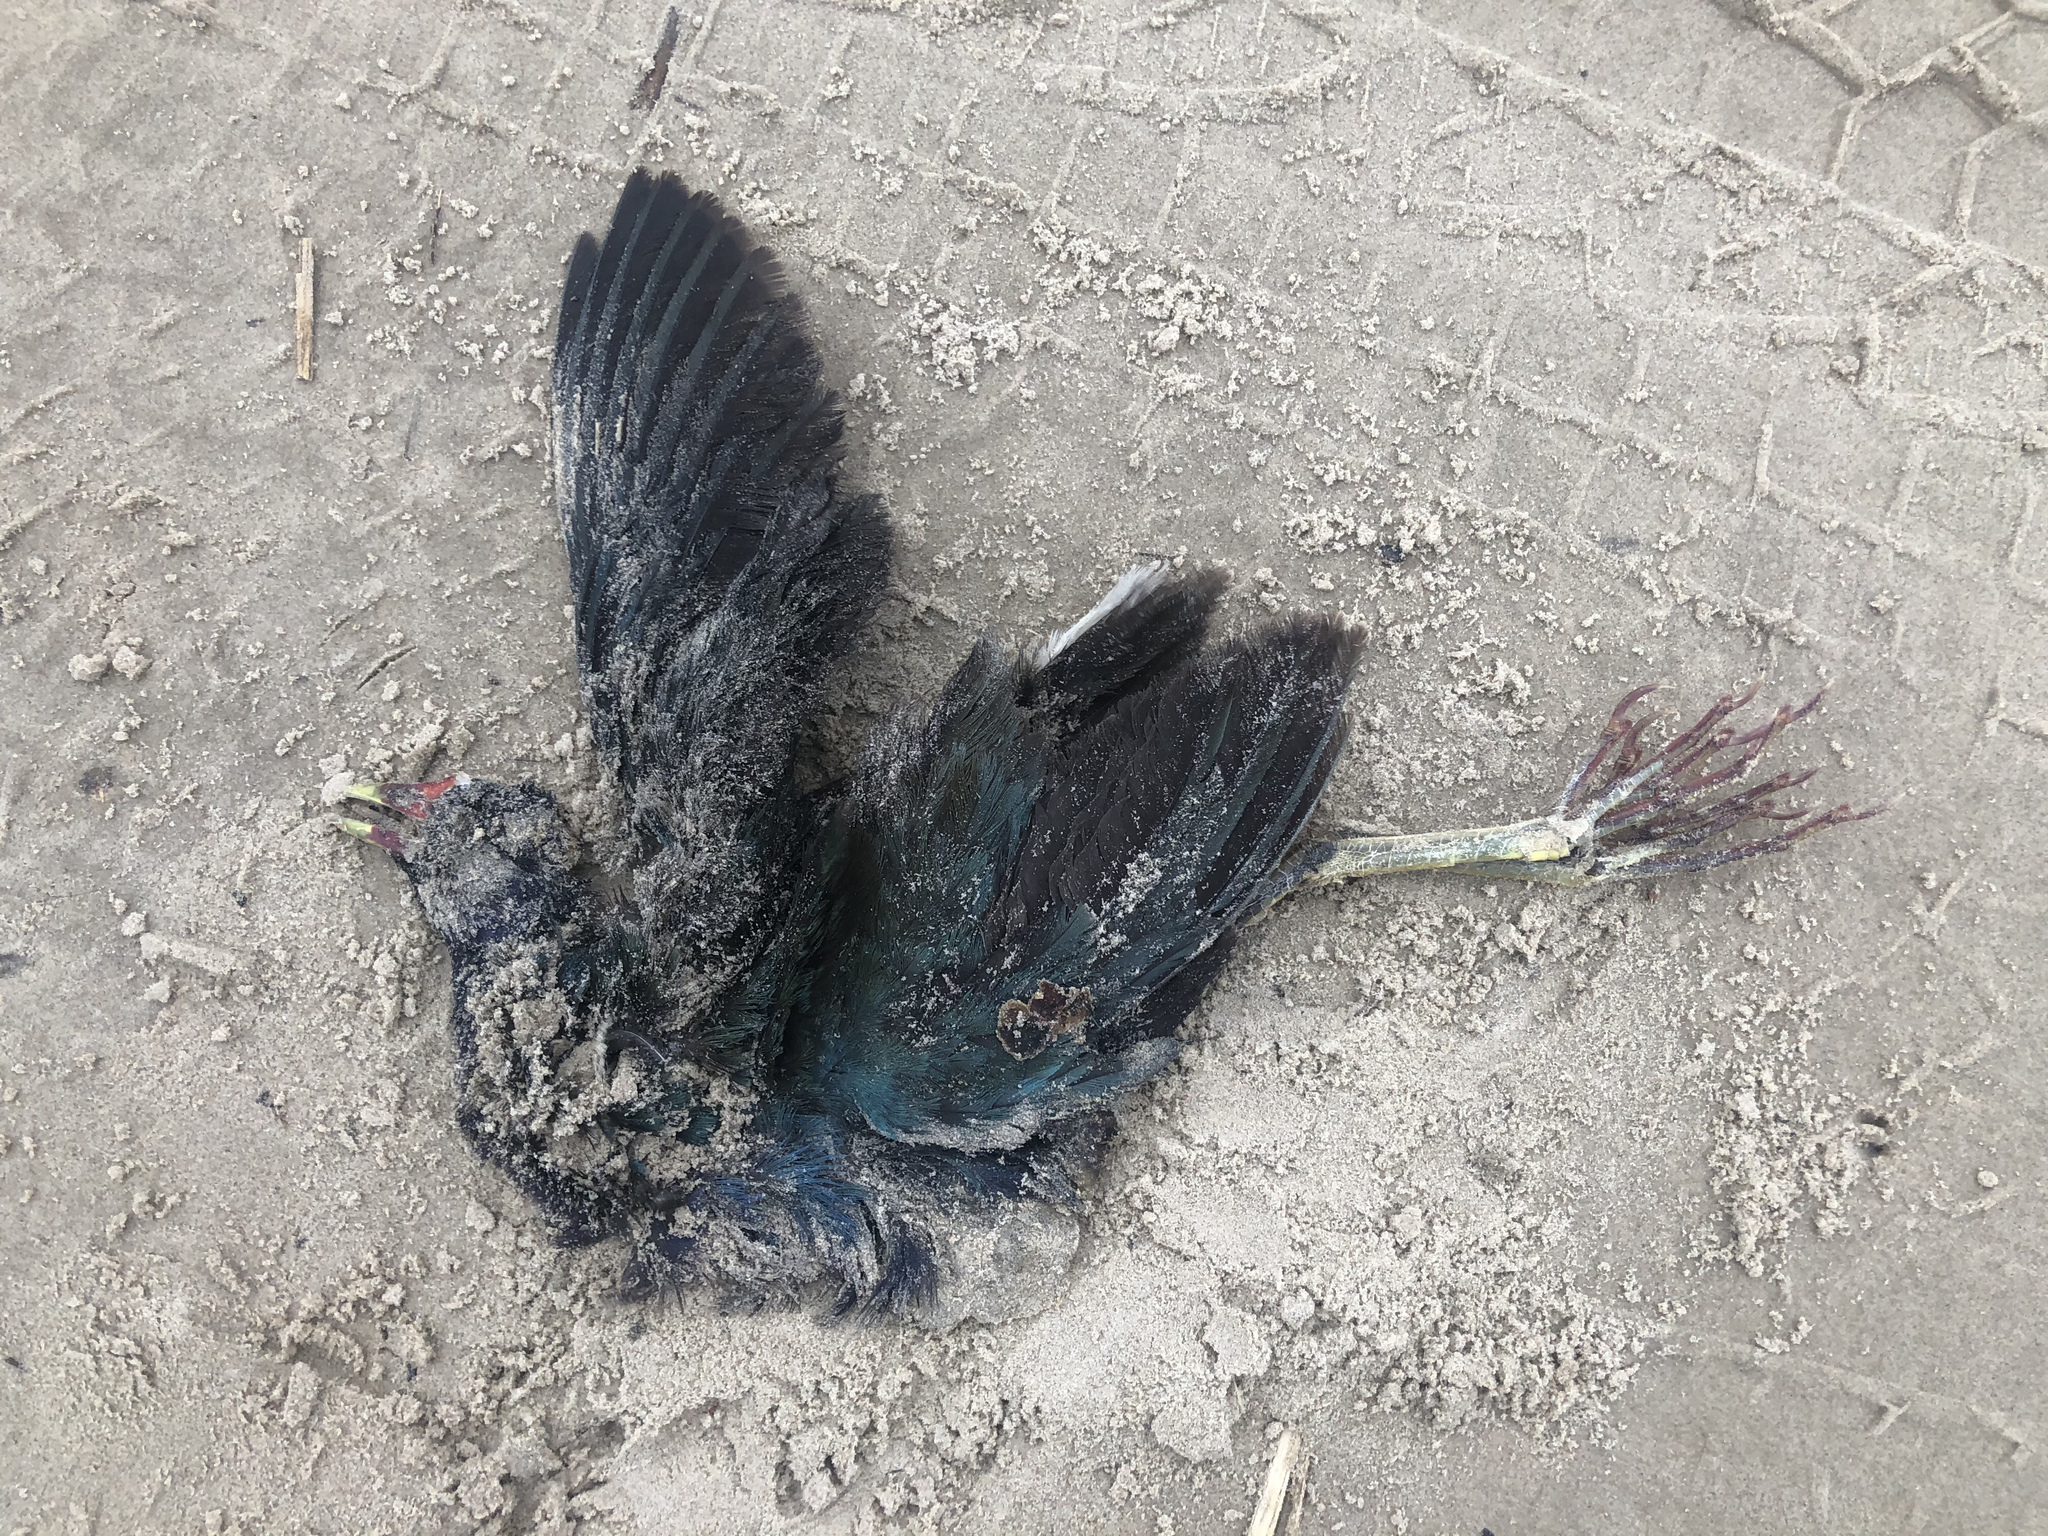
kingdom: Animalia
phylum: Chordata
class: Aves
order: Gruiformes
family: Rallidae
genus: Porphyrio
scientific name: Porphyrio martinica
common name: Purple gallinule
